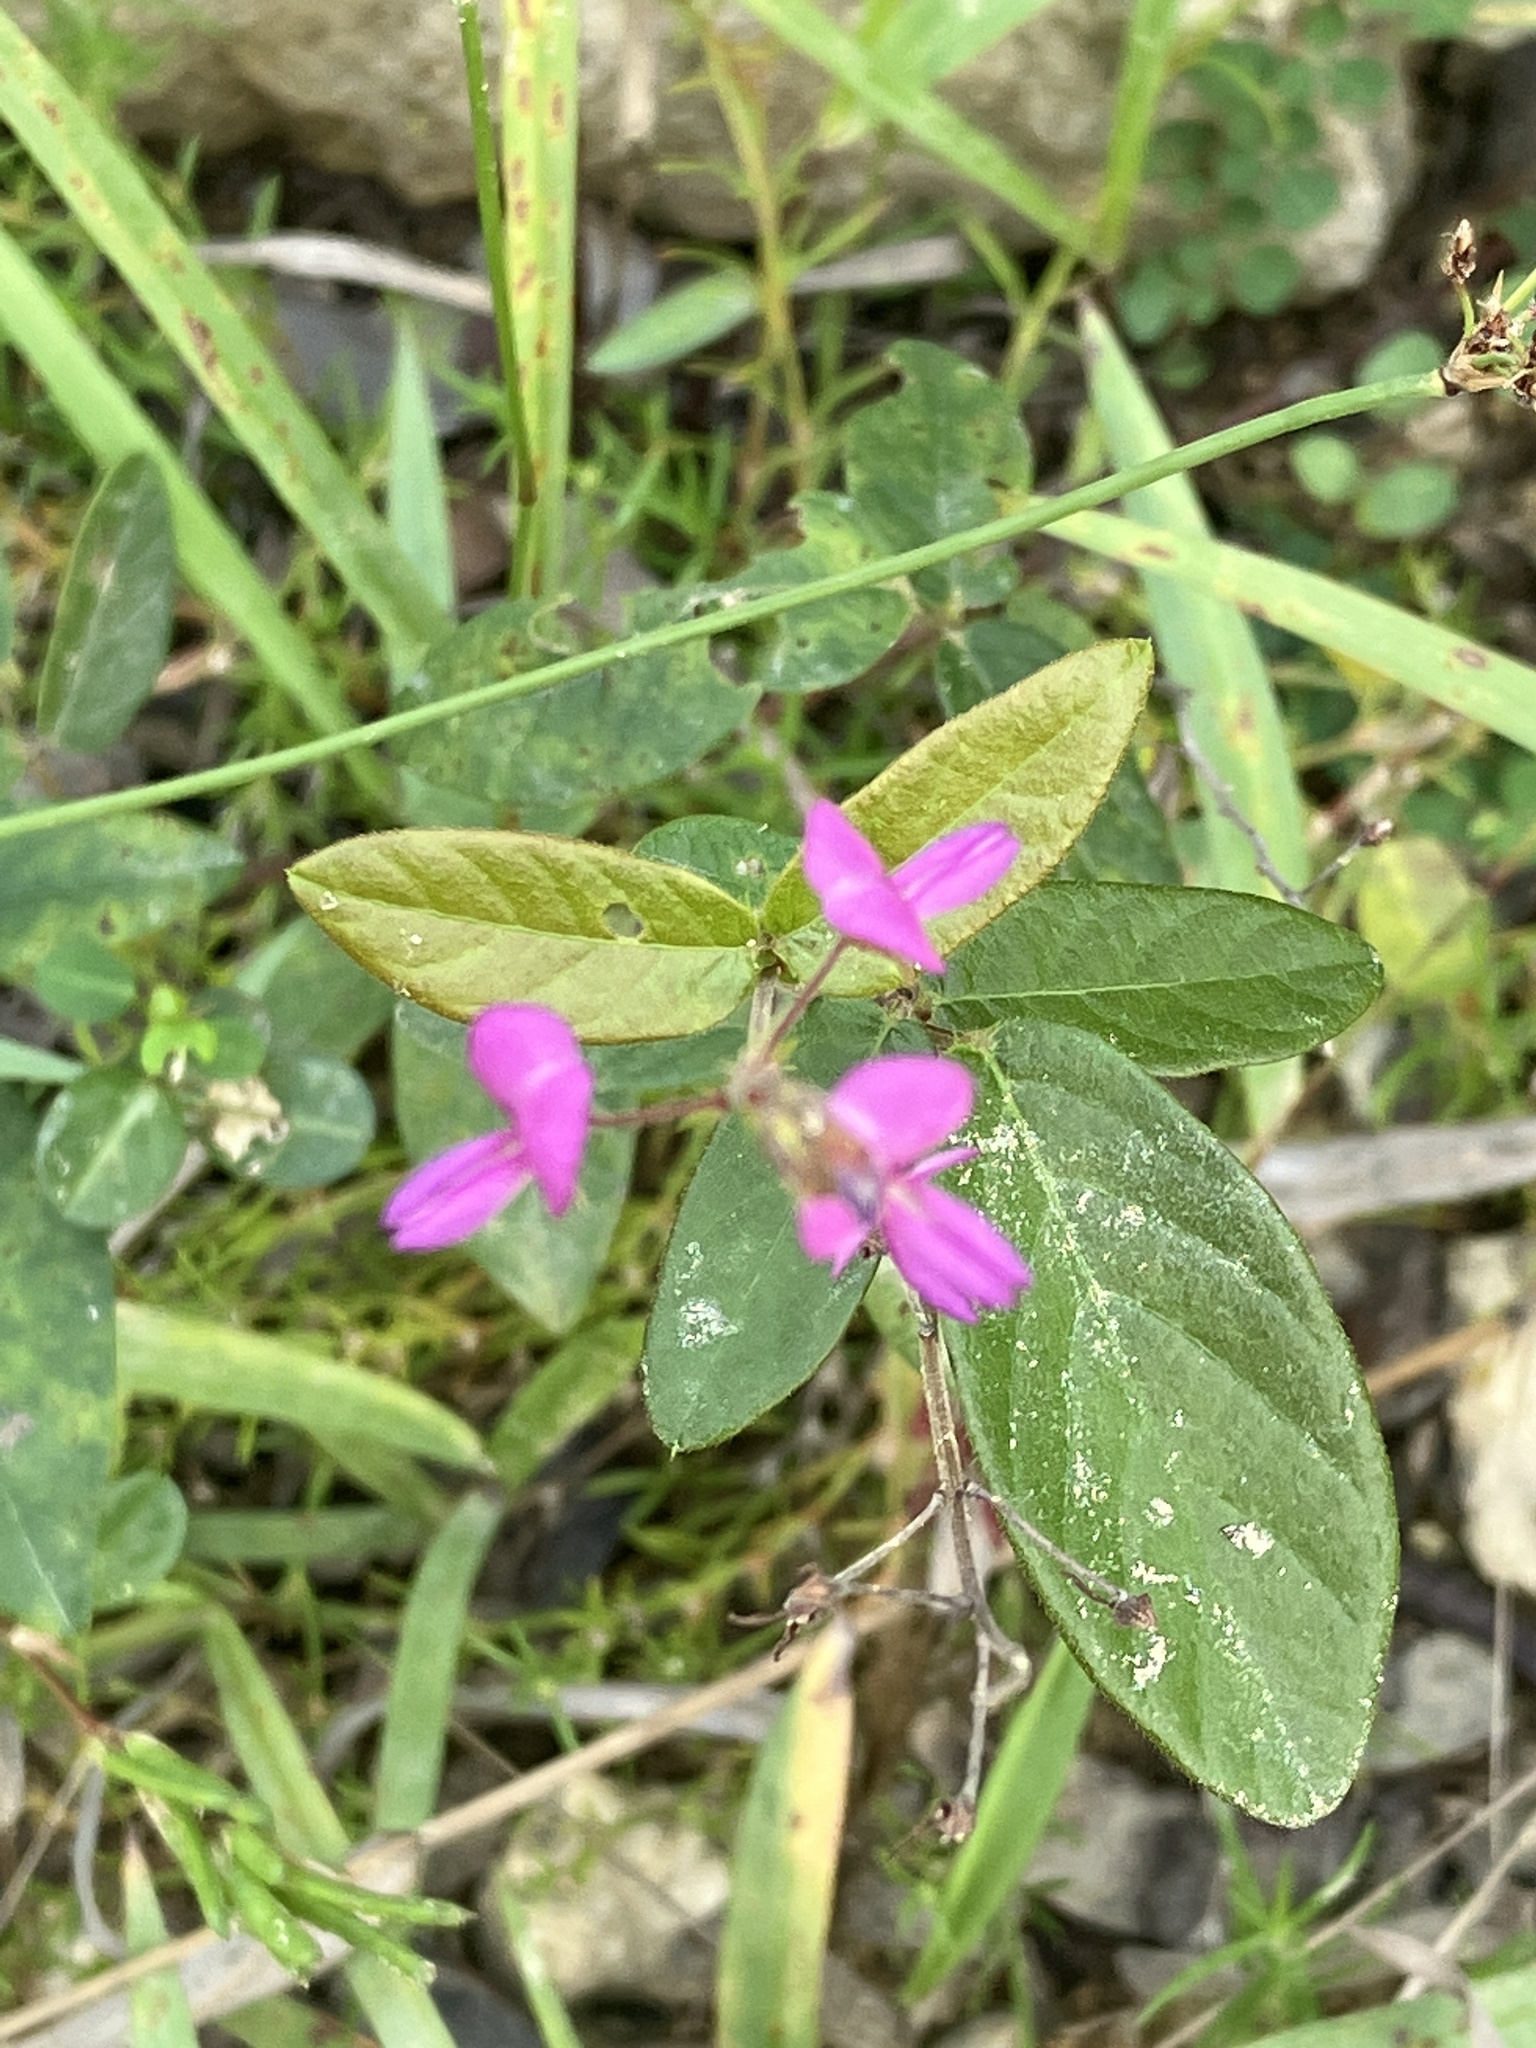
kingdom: Plantae
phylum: Tracheophyta
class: Magnoliopsida
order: Fabales
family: Fabaceae
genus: Desmodium
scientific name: Desmodium incanum
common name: Tickclover
